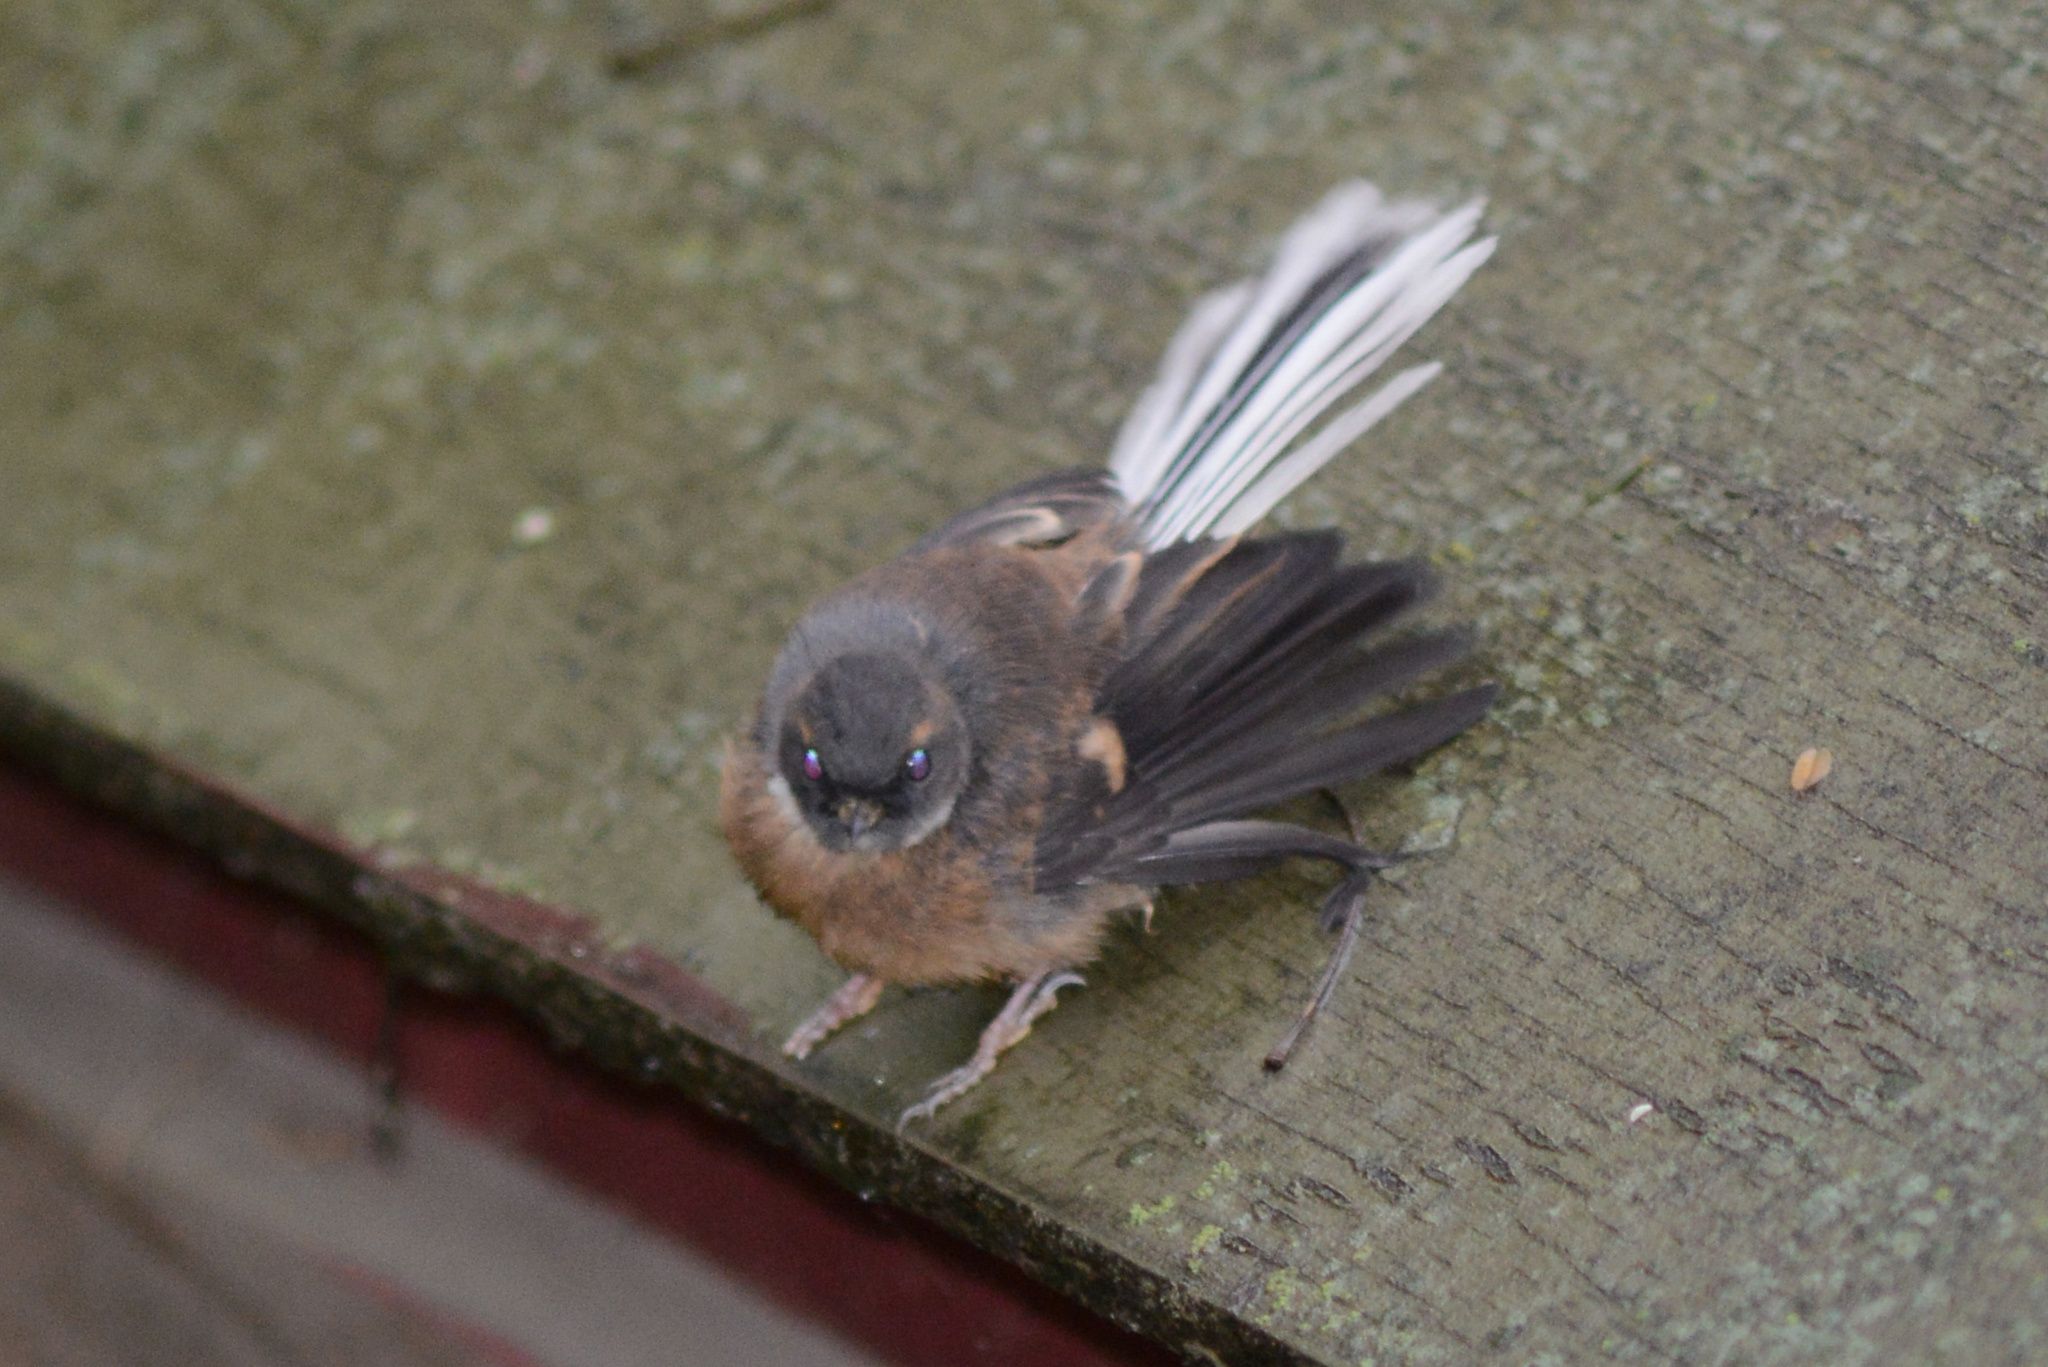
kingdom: Animalia
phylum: Chordata
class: Aves
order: Passeriformes
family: Rhipiduridae
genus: Rhipidura
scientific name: Rhipidura fuliginosa
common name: New zealand fantail
